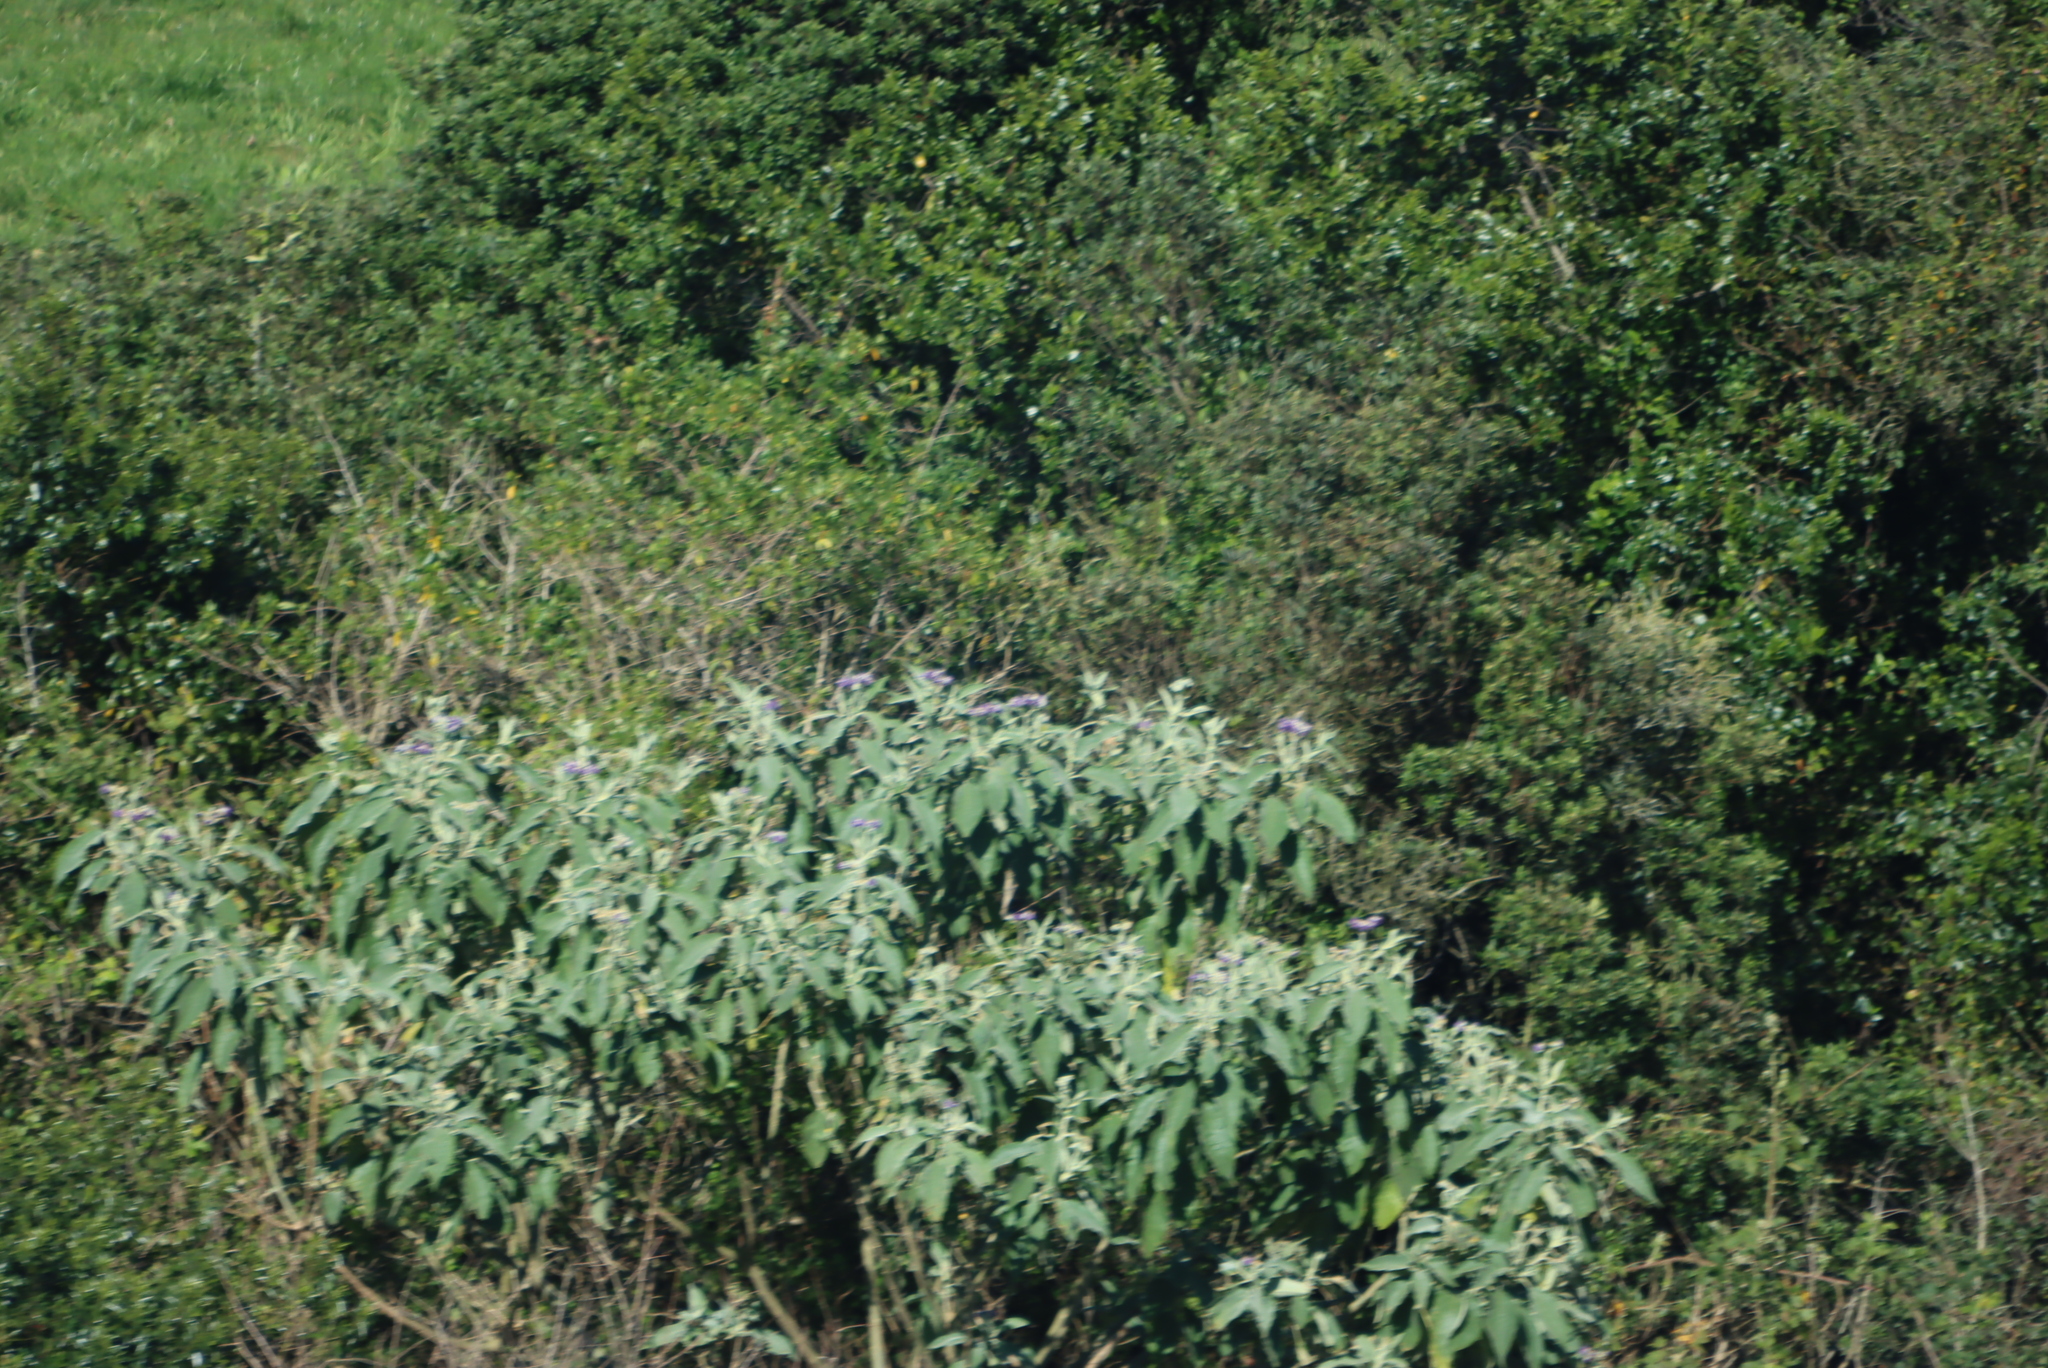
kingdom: Plantae
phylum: Tracheophyta
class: Magnoliopsida
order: Solanales
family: Solanaceae
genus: Solanum
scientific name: Solanum mauritianum
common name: Earleaf nightshade
